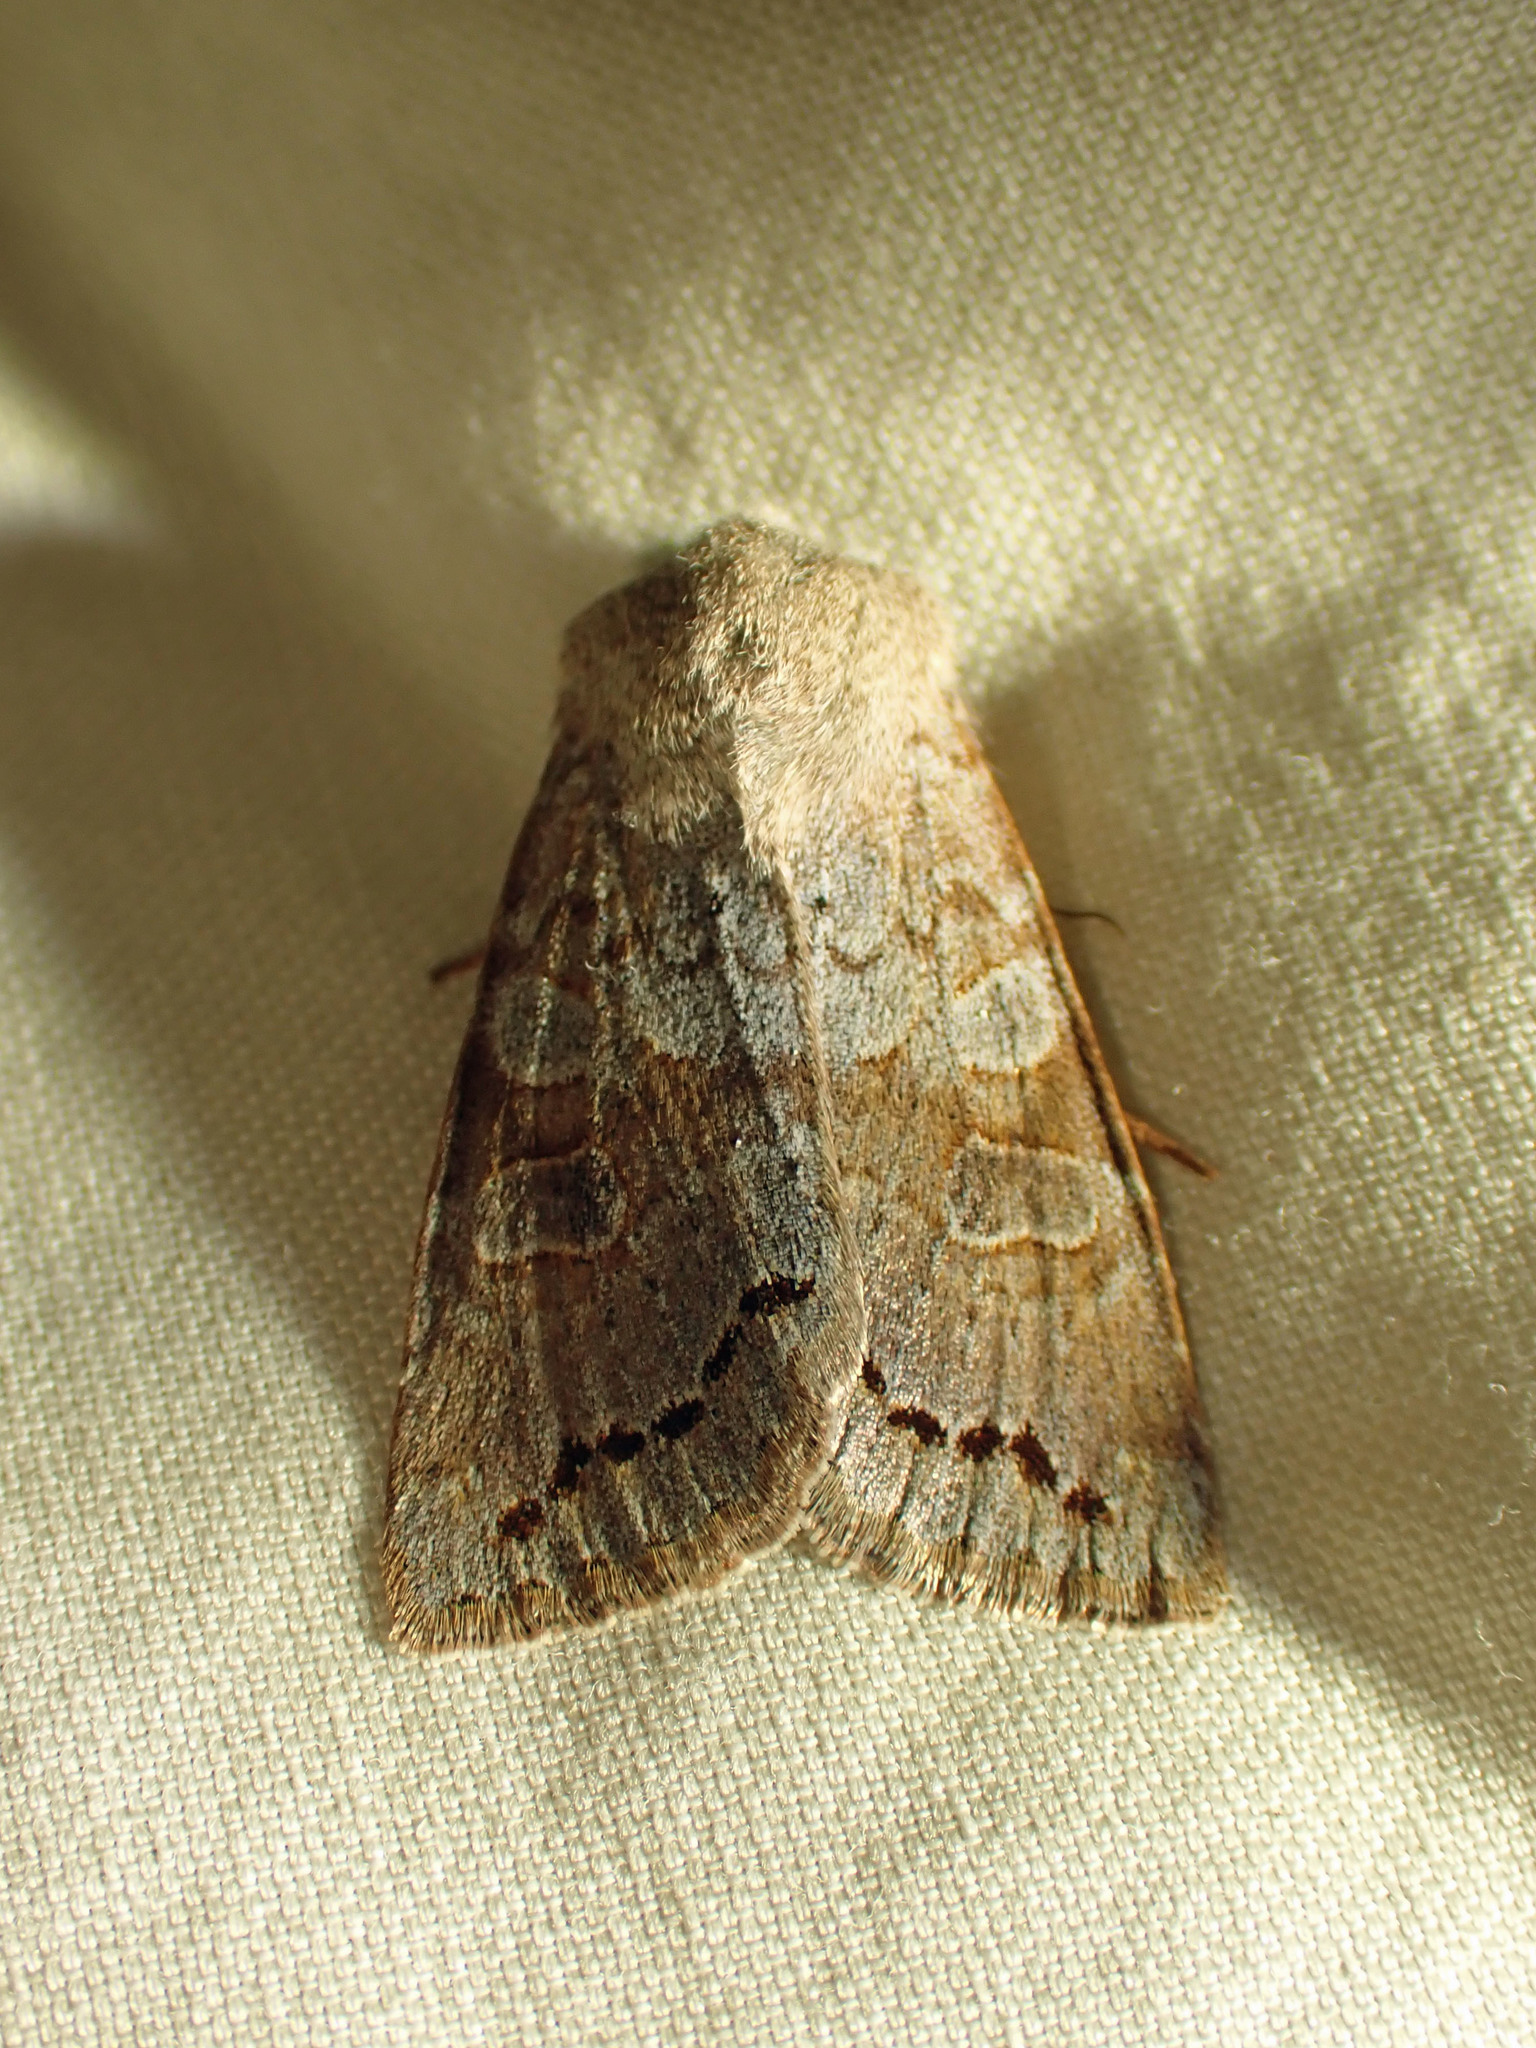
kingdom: Animalia
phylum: Arthropoda
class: Insecta
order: Lepidoptera
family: Noctuidae
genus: Orthosia
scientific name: Orthosia revicta
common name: Rusty whitesided caterpillar
